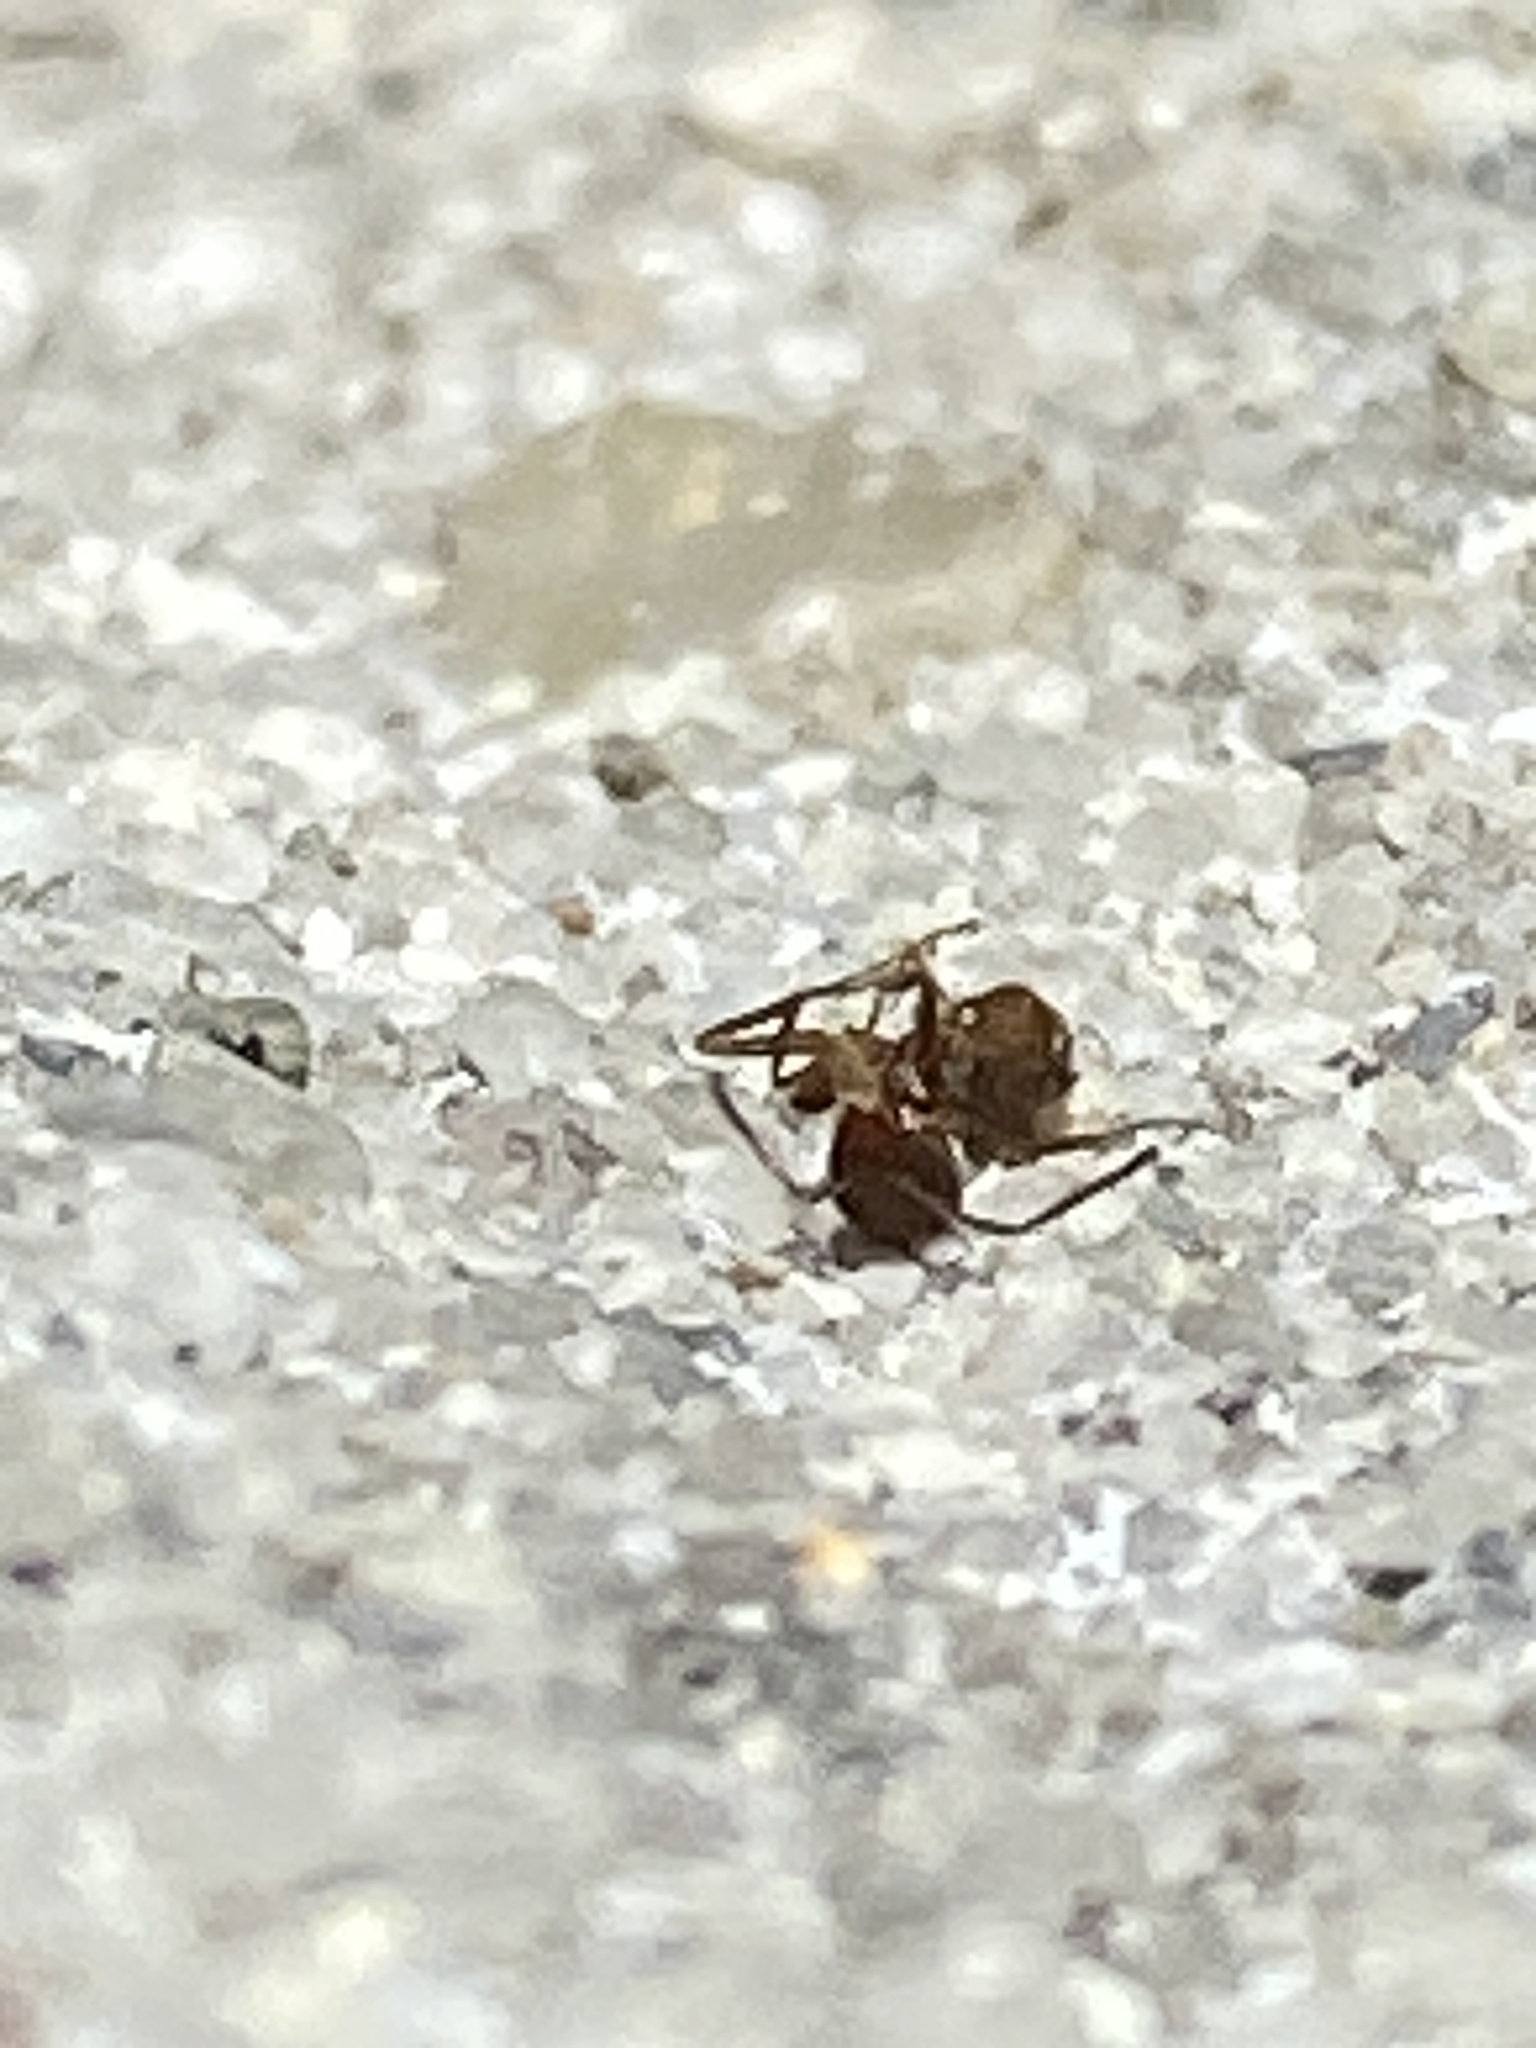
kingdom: Animalia
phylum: Arthropoda
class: Insecta
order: Hymenoptera
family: Formicidae
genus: Linepithema
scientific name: Linepithema humile
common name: Argentine ant
